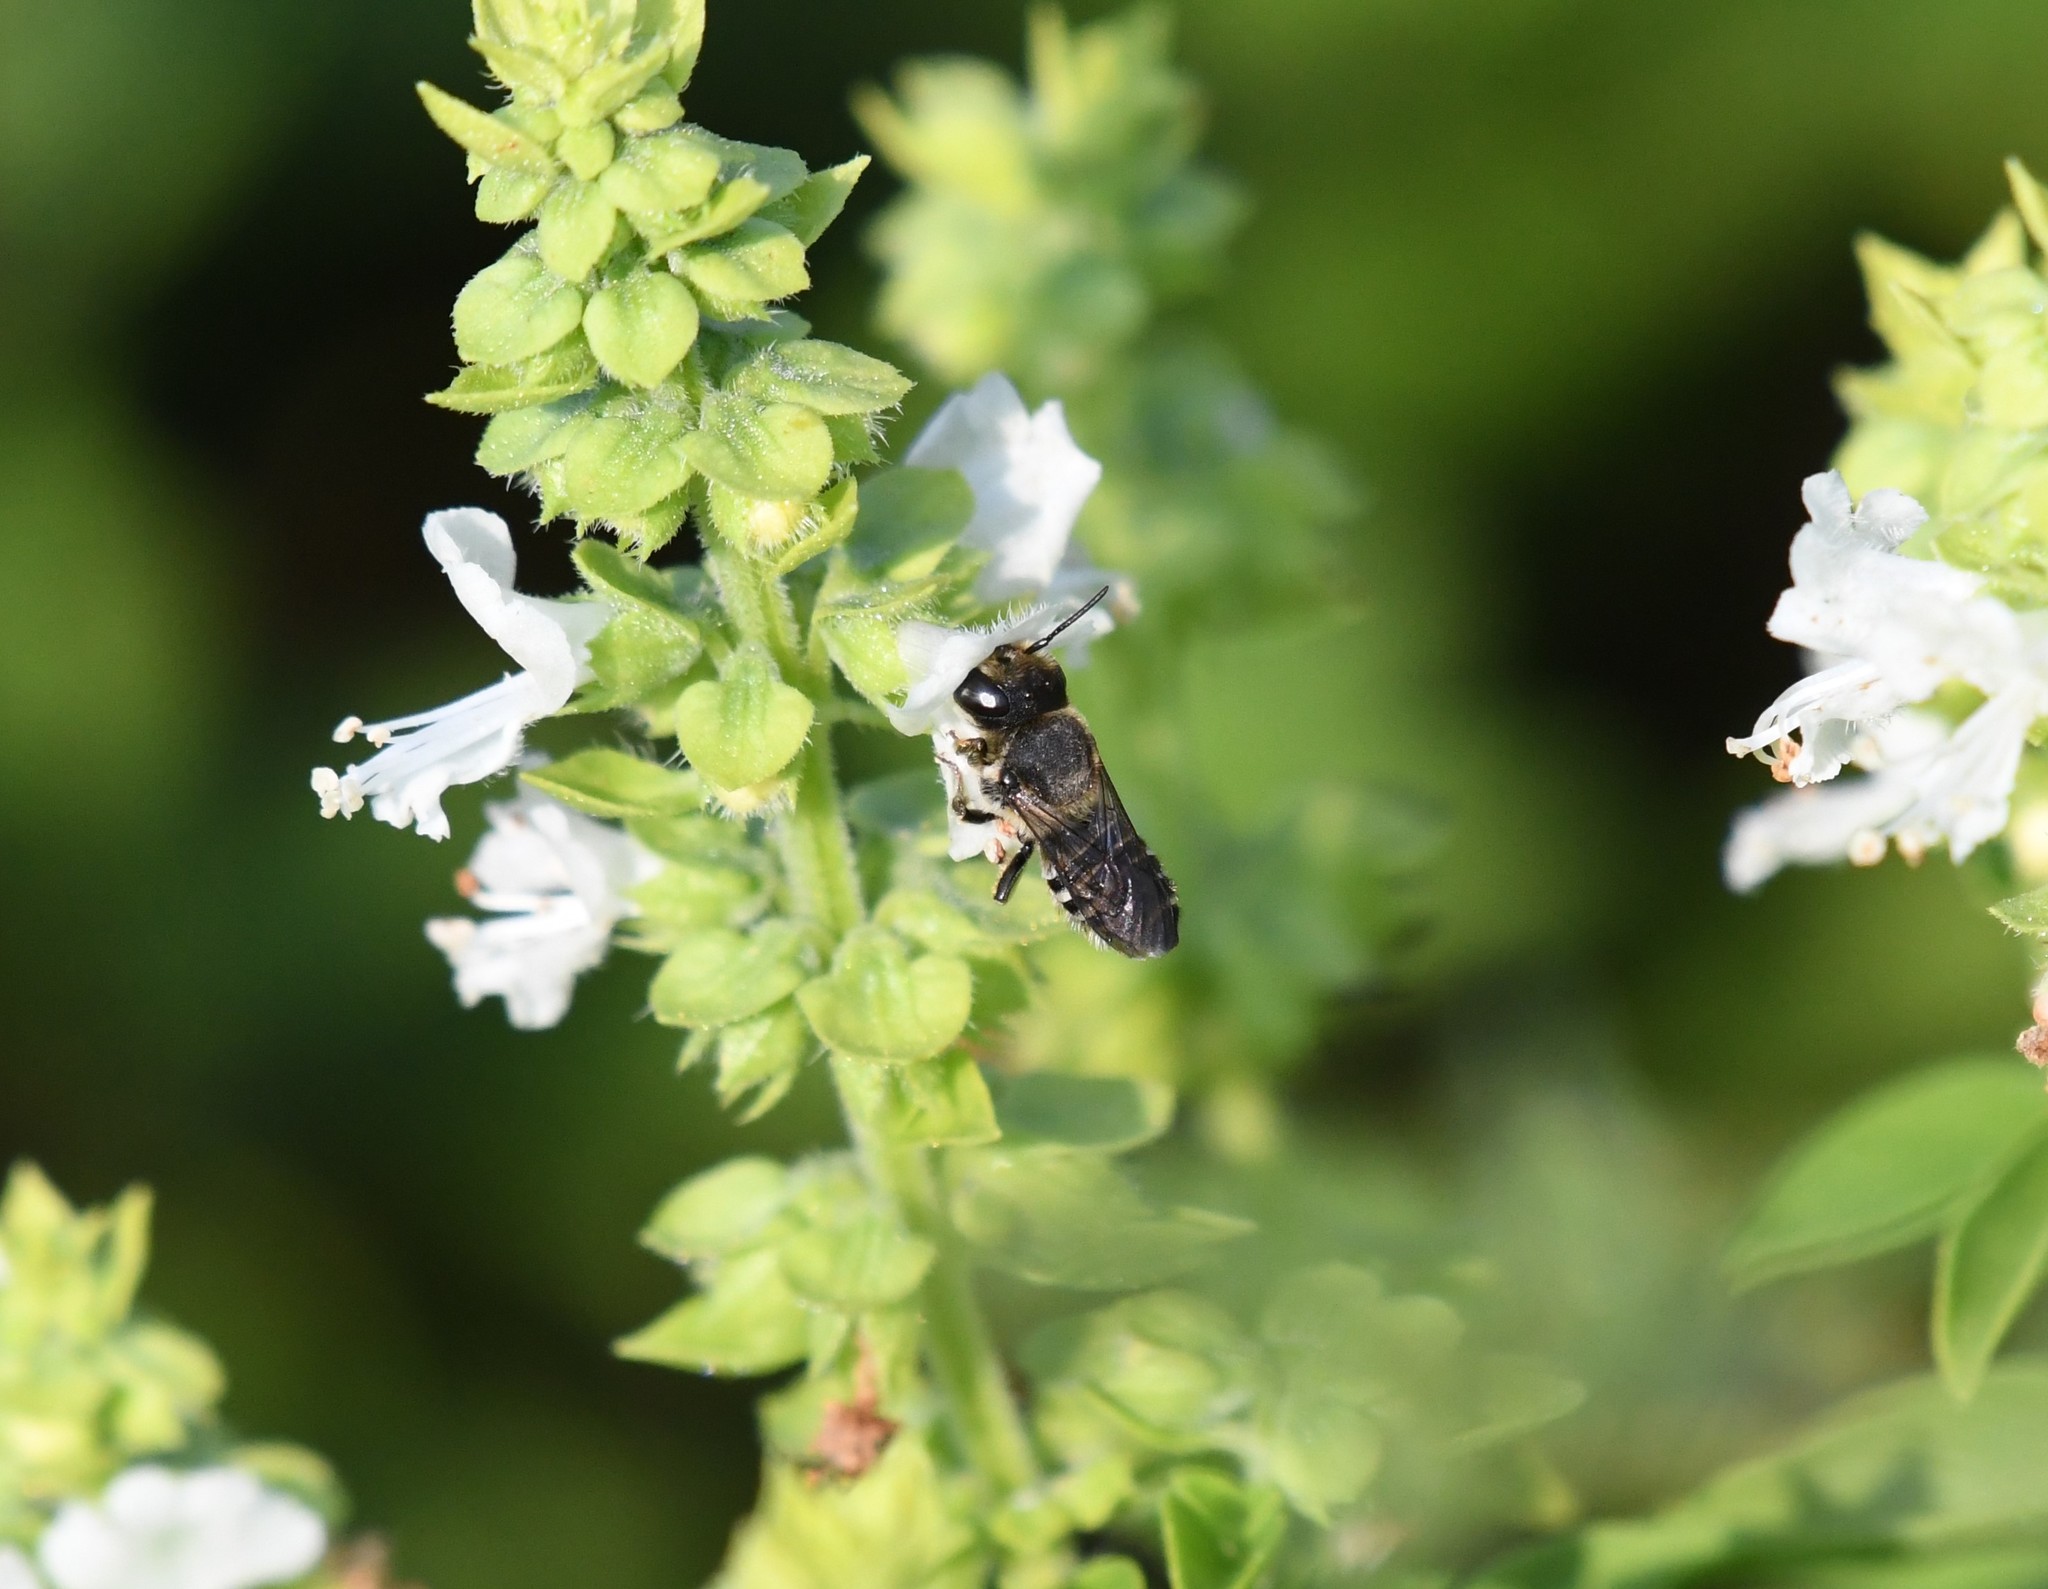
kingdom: Animalia
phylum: Arthropoda
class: Insecta
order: Hymenoptera
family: Megachilidae
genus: Megachile
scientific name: Megachile rotundata
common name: Alfalfa leafcutting bee
